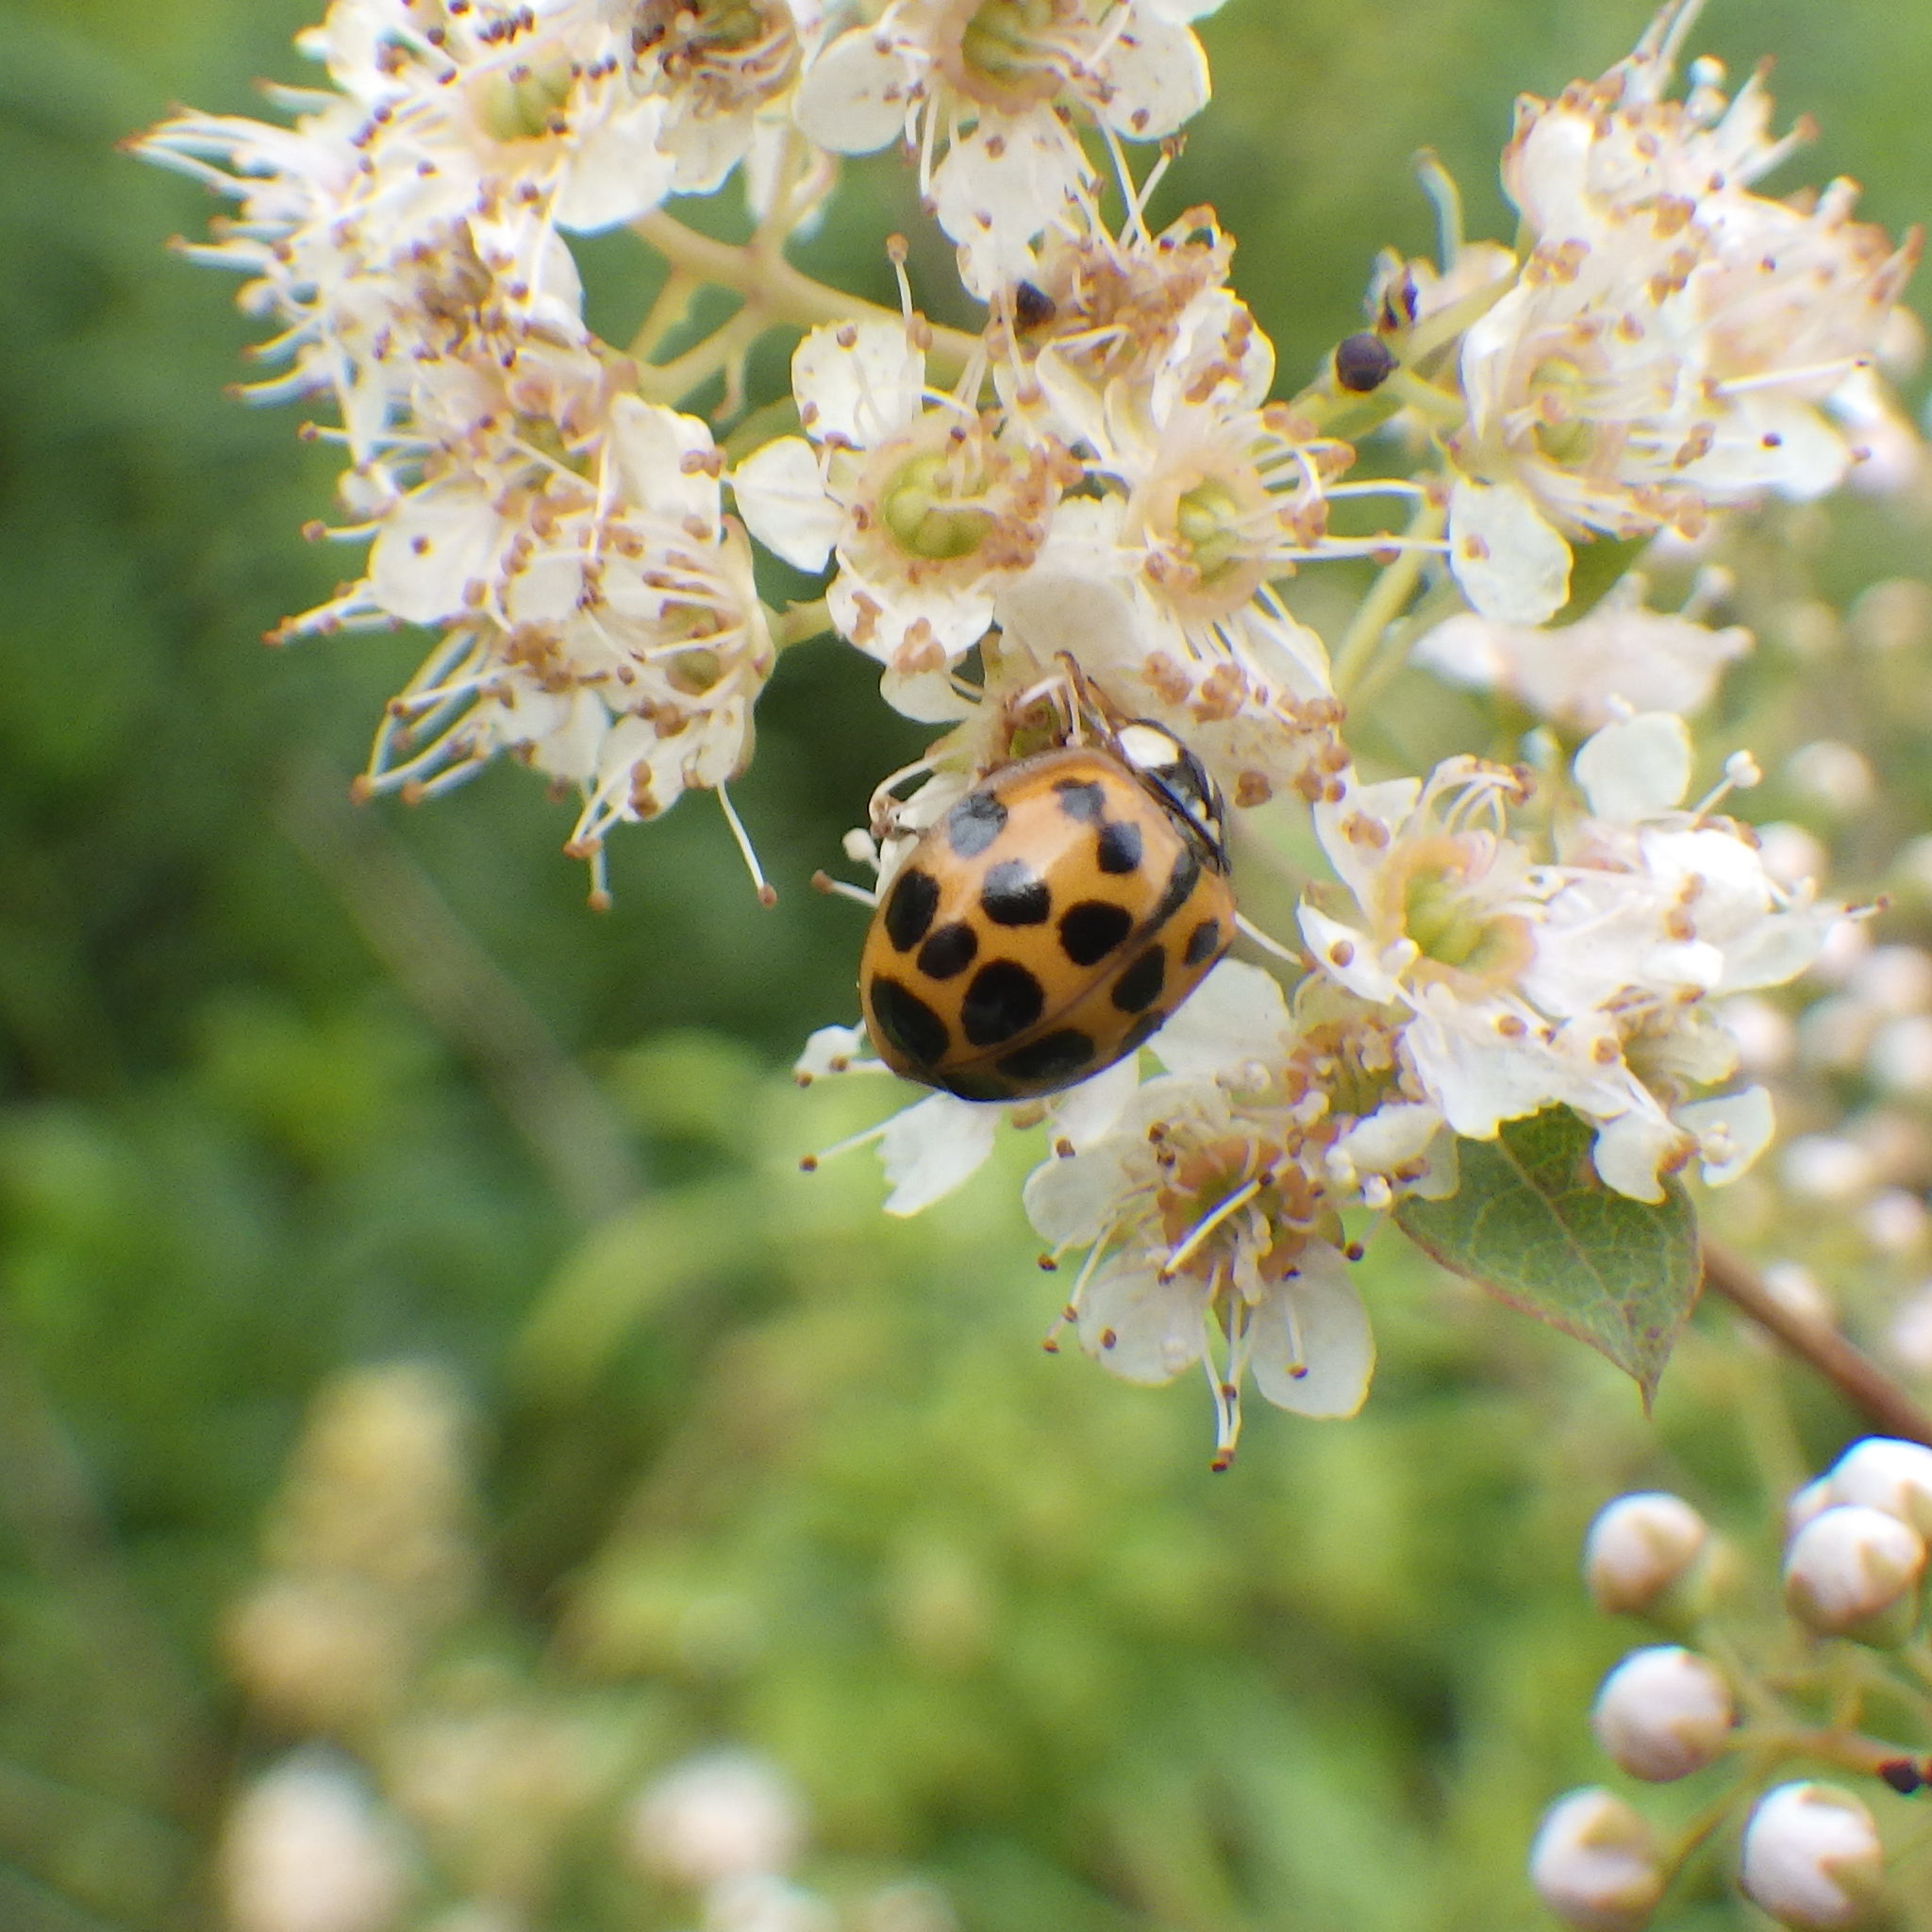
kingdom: Animalia
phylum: Arthropoda
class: Insecta
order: Coleoptera
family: Coccinellidae
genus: Harmonia
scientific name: Harmonia axyridis
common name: Harlequin ladybird
